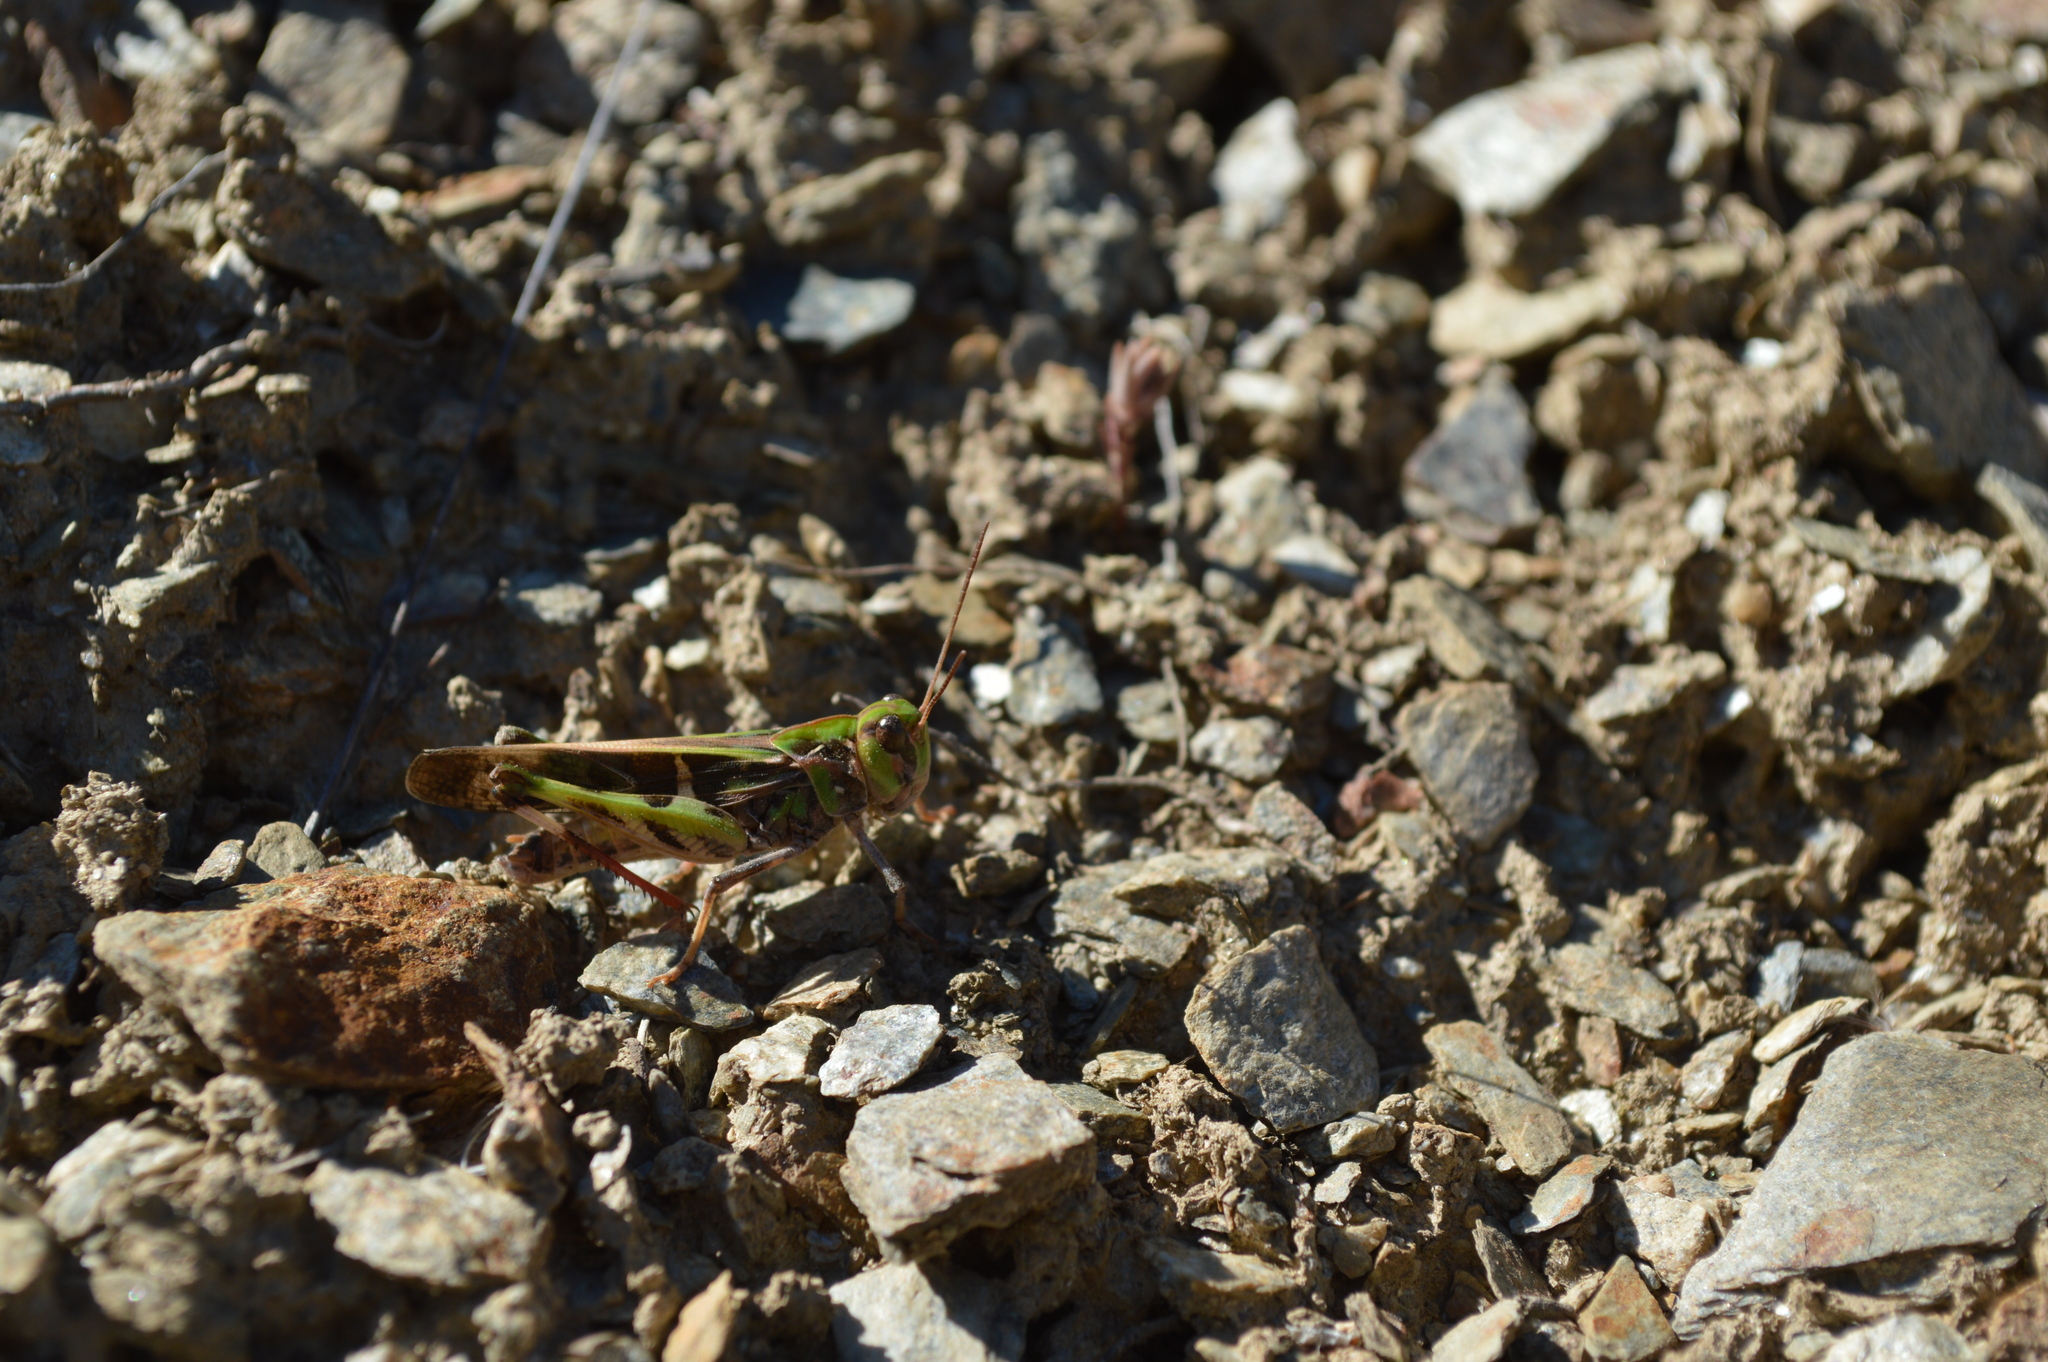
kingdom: Animalia
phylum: Arthropoda
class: Insecta
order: Orthoptera
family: Acrididae
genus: Oedaleus
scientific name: Oedaleus decorus
